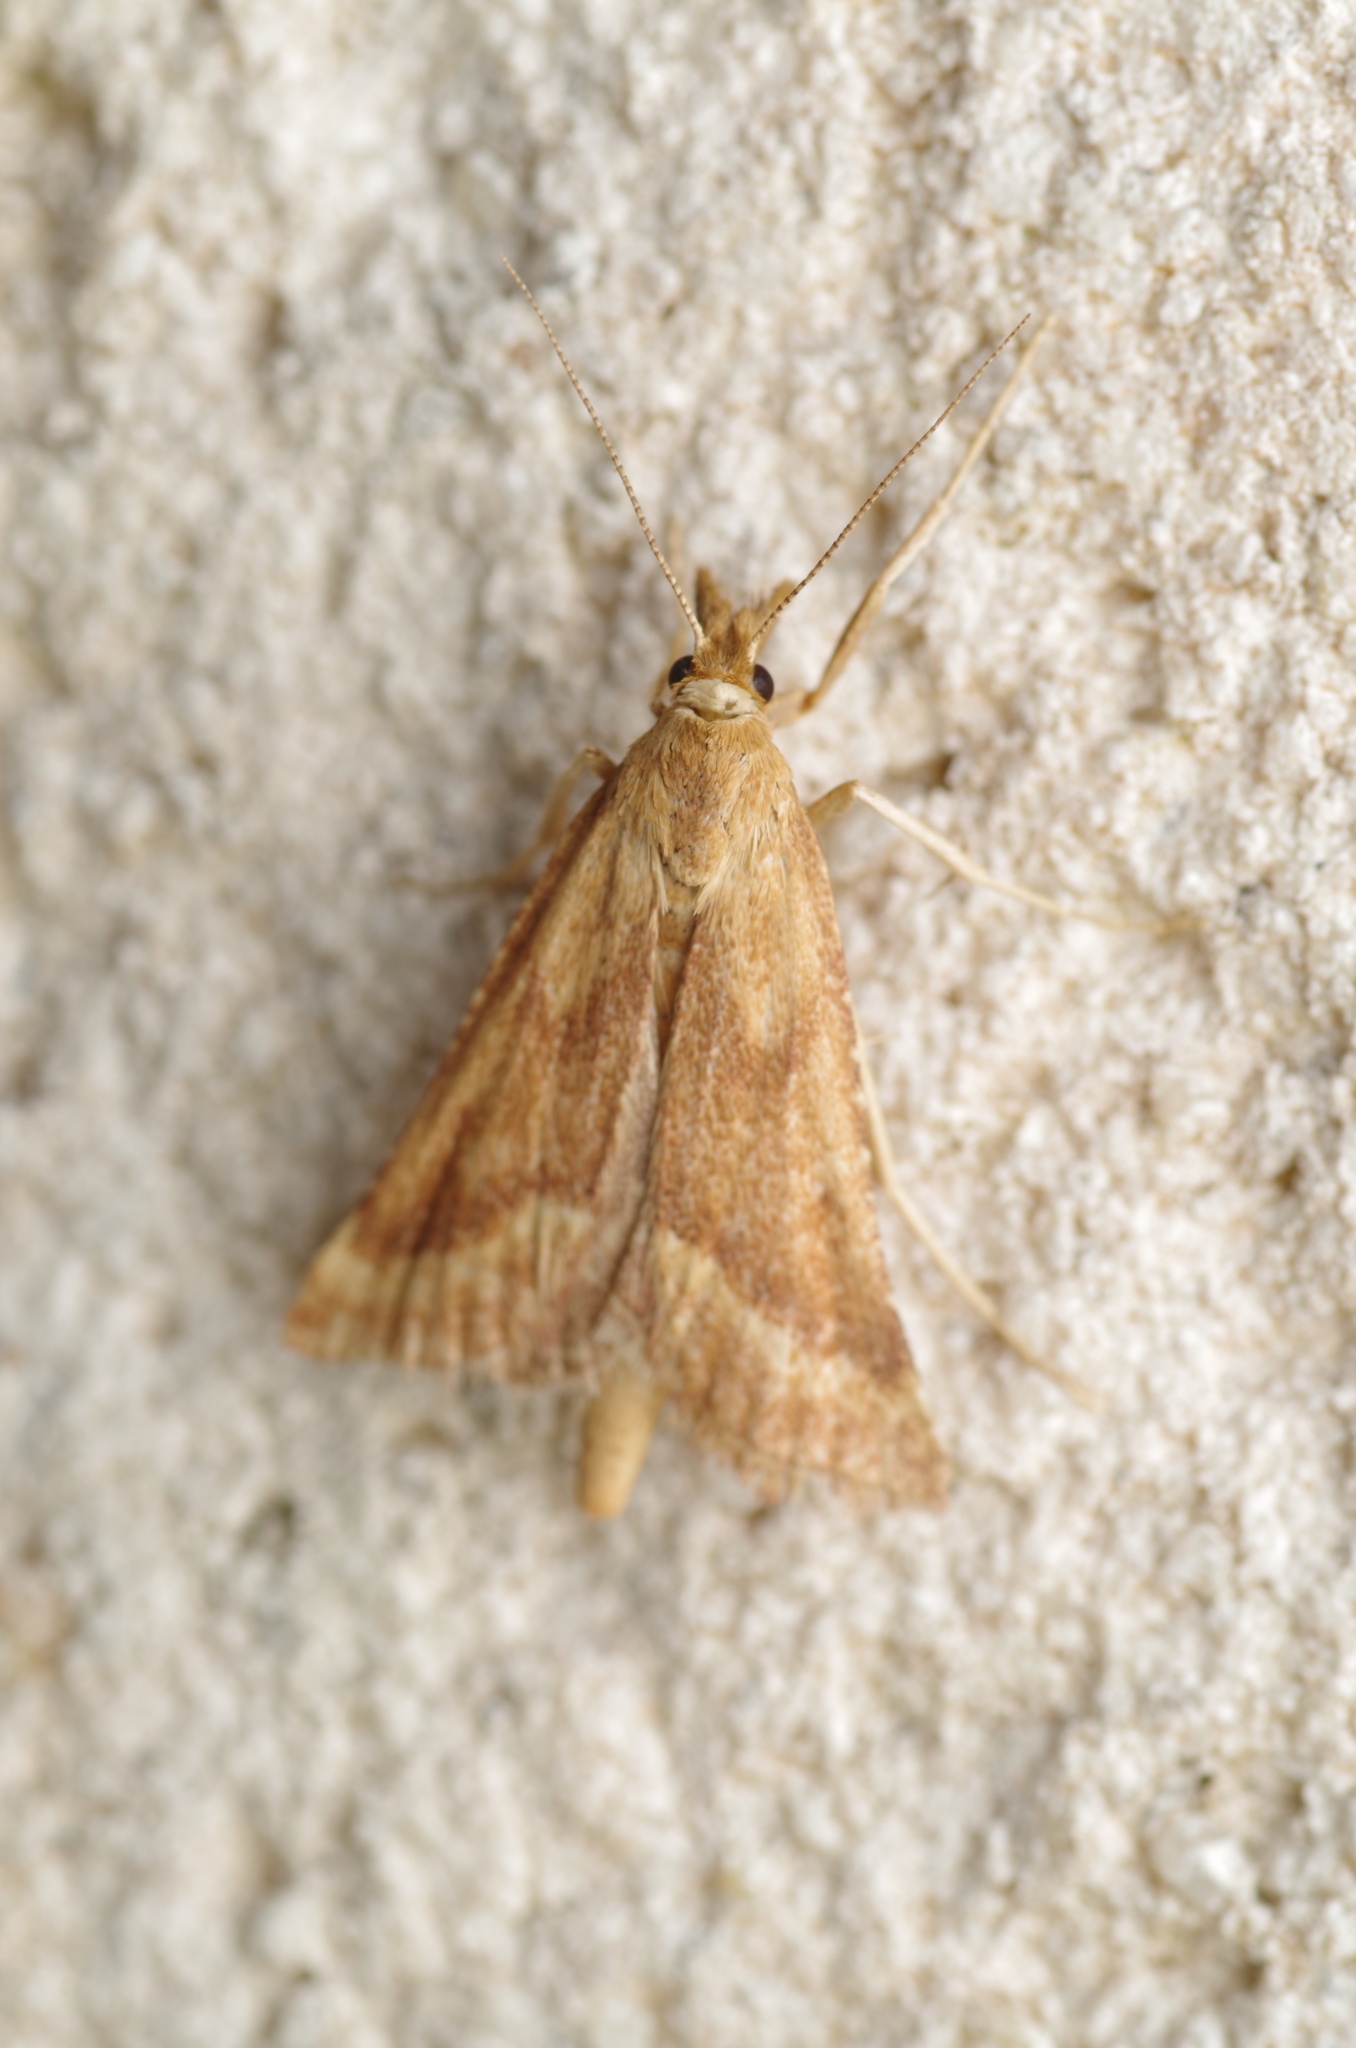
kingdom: Animalia
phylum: Arthropoda
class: Insecta
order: Lepidoptera
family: Pyralidae
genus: Synaphe
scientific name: Synaphe punctalis
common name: Long-legged tabby
